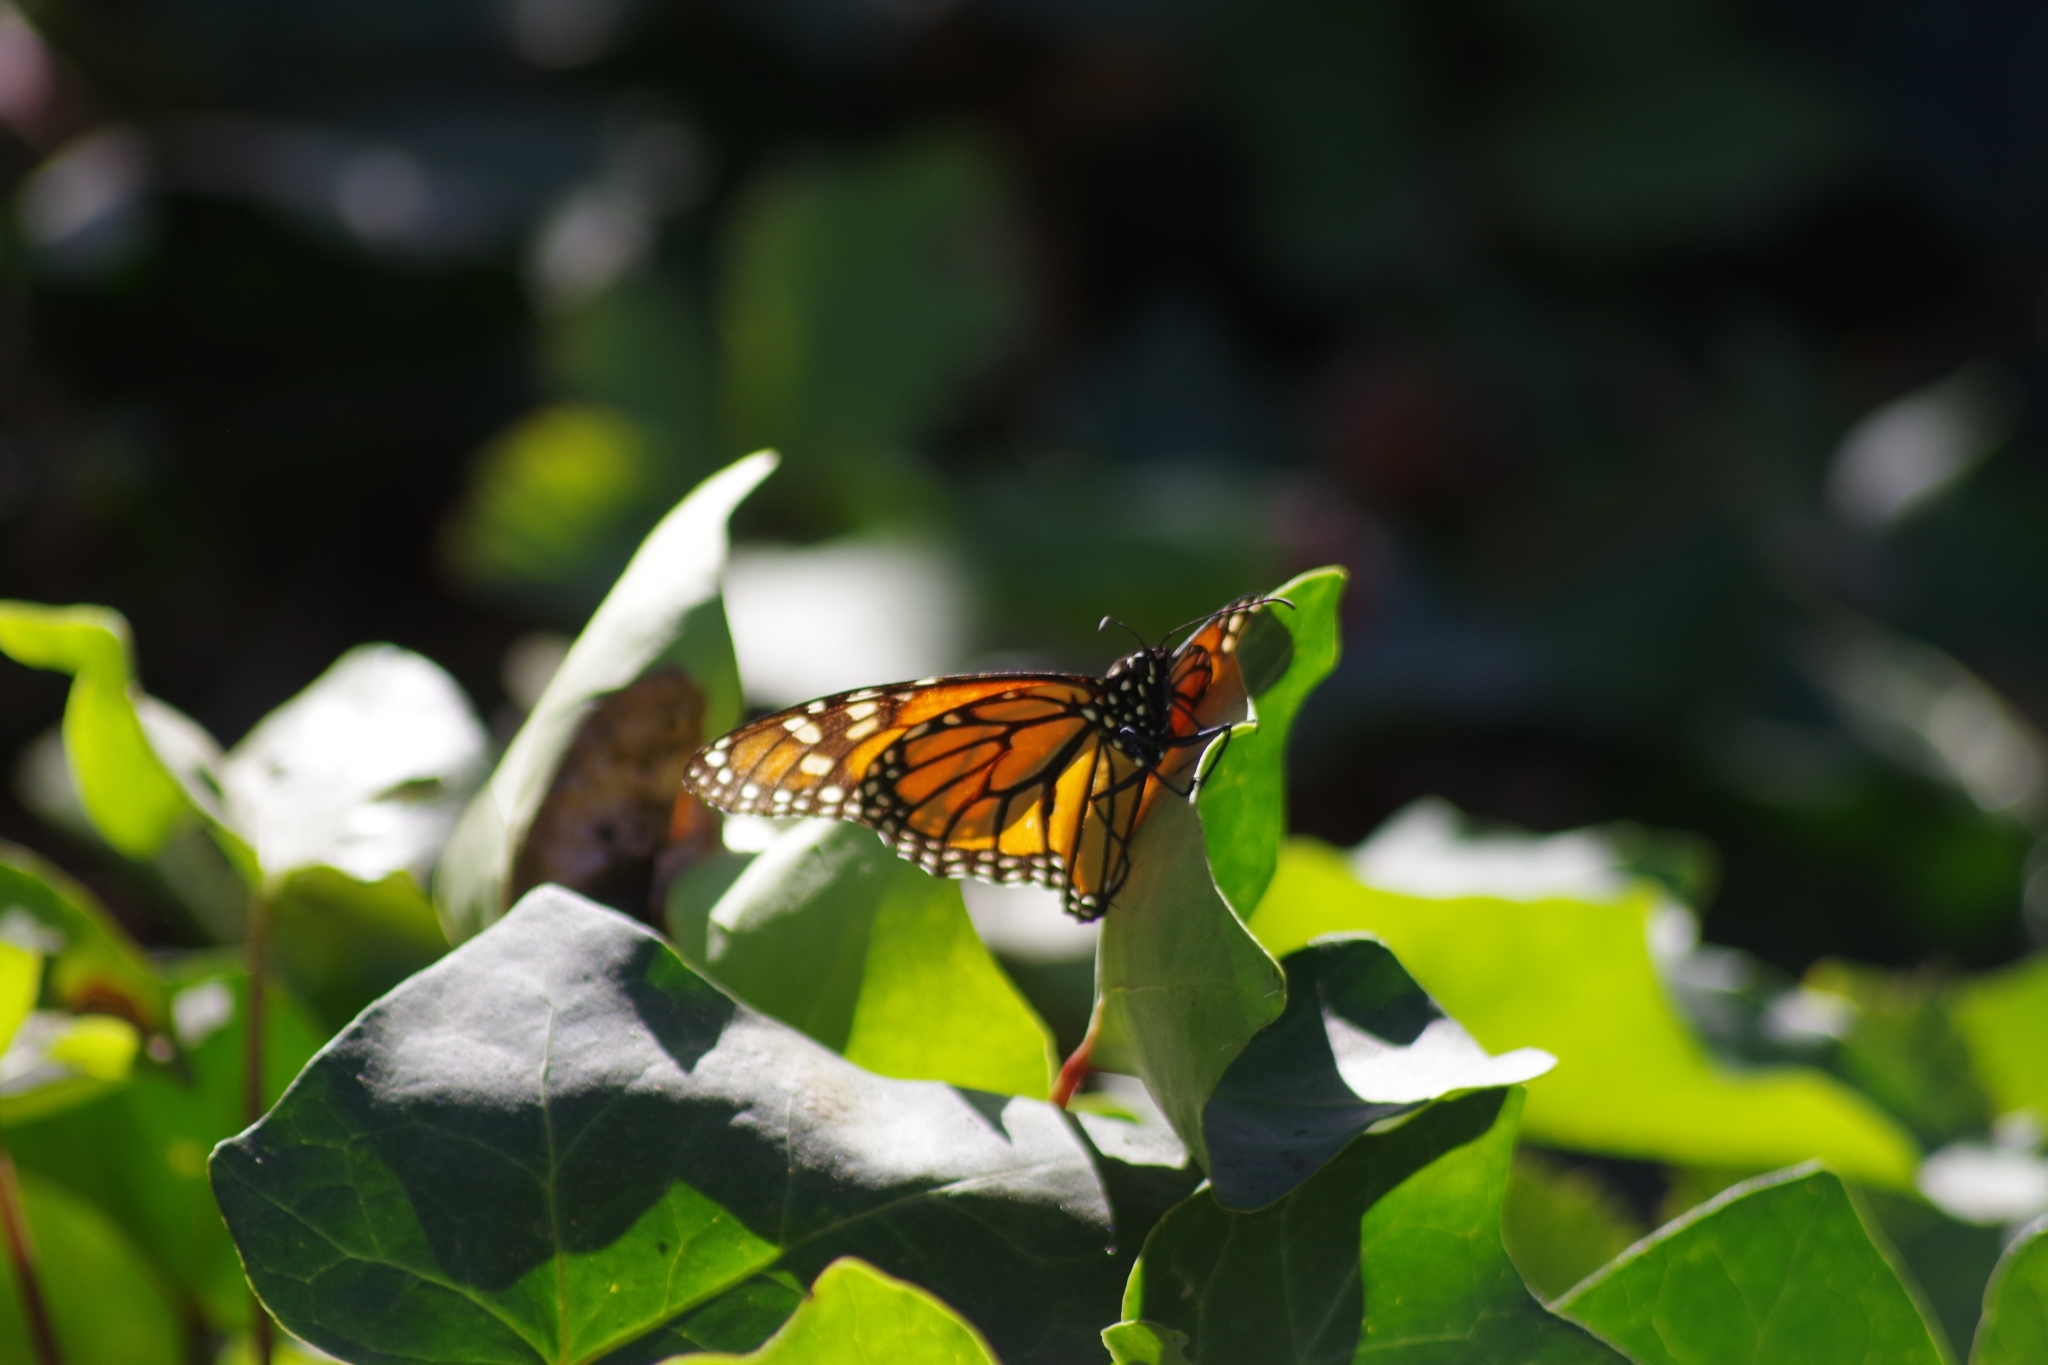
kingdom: Animalia
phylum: Arthropoda
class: Insecta
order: Lepidoptera
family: Nymphalidae
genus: Danaus
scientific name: Danaus plexippus
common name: Monarch
